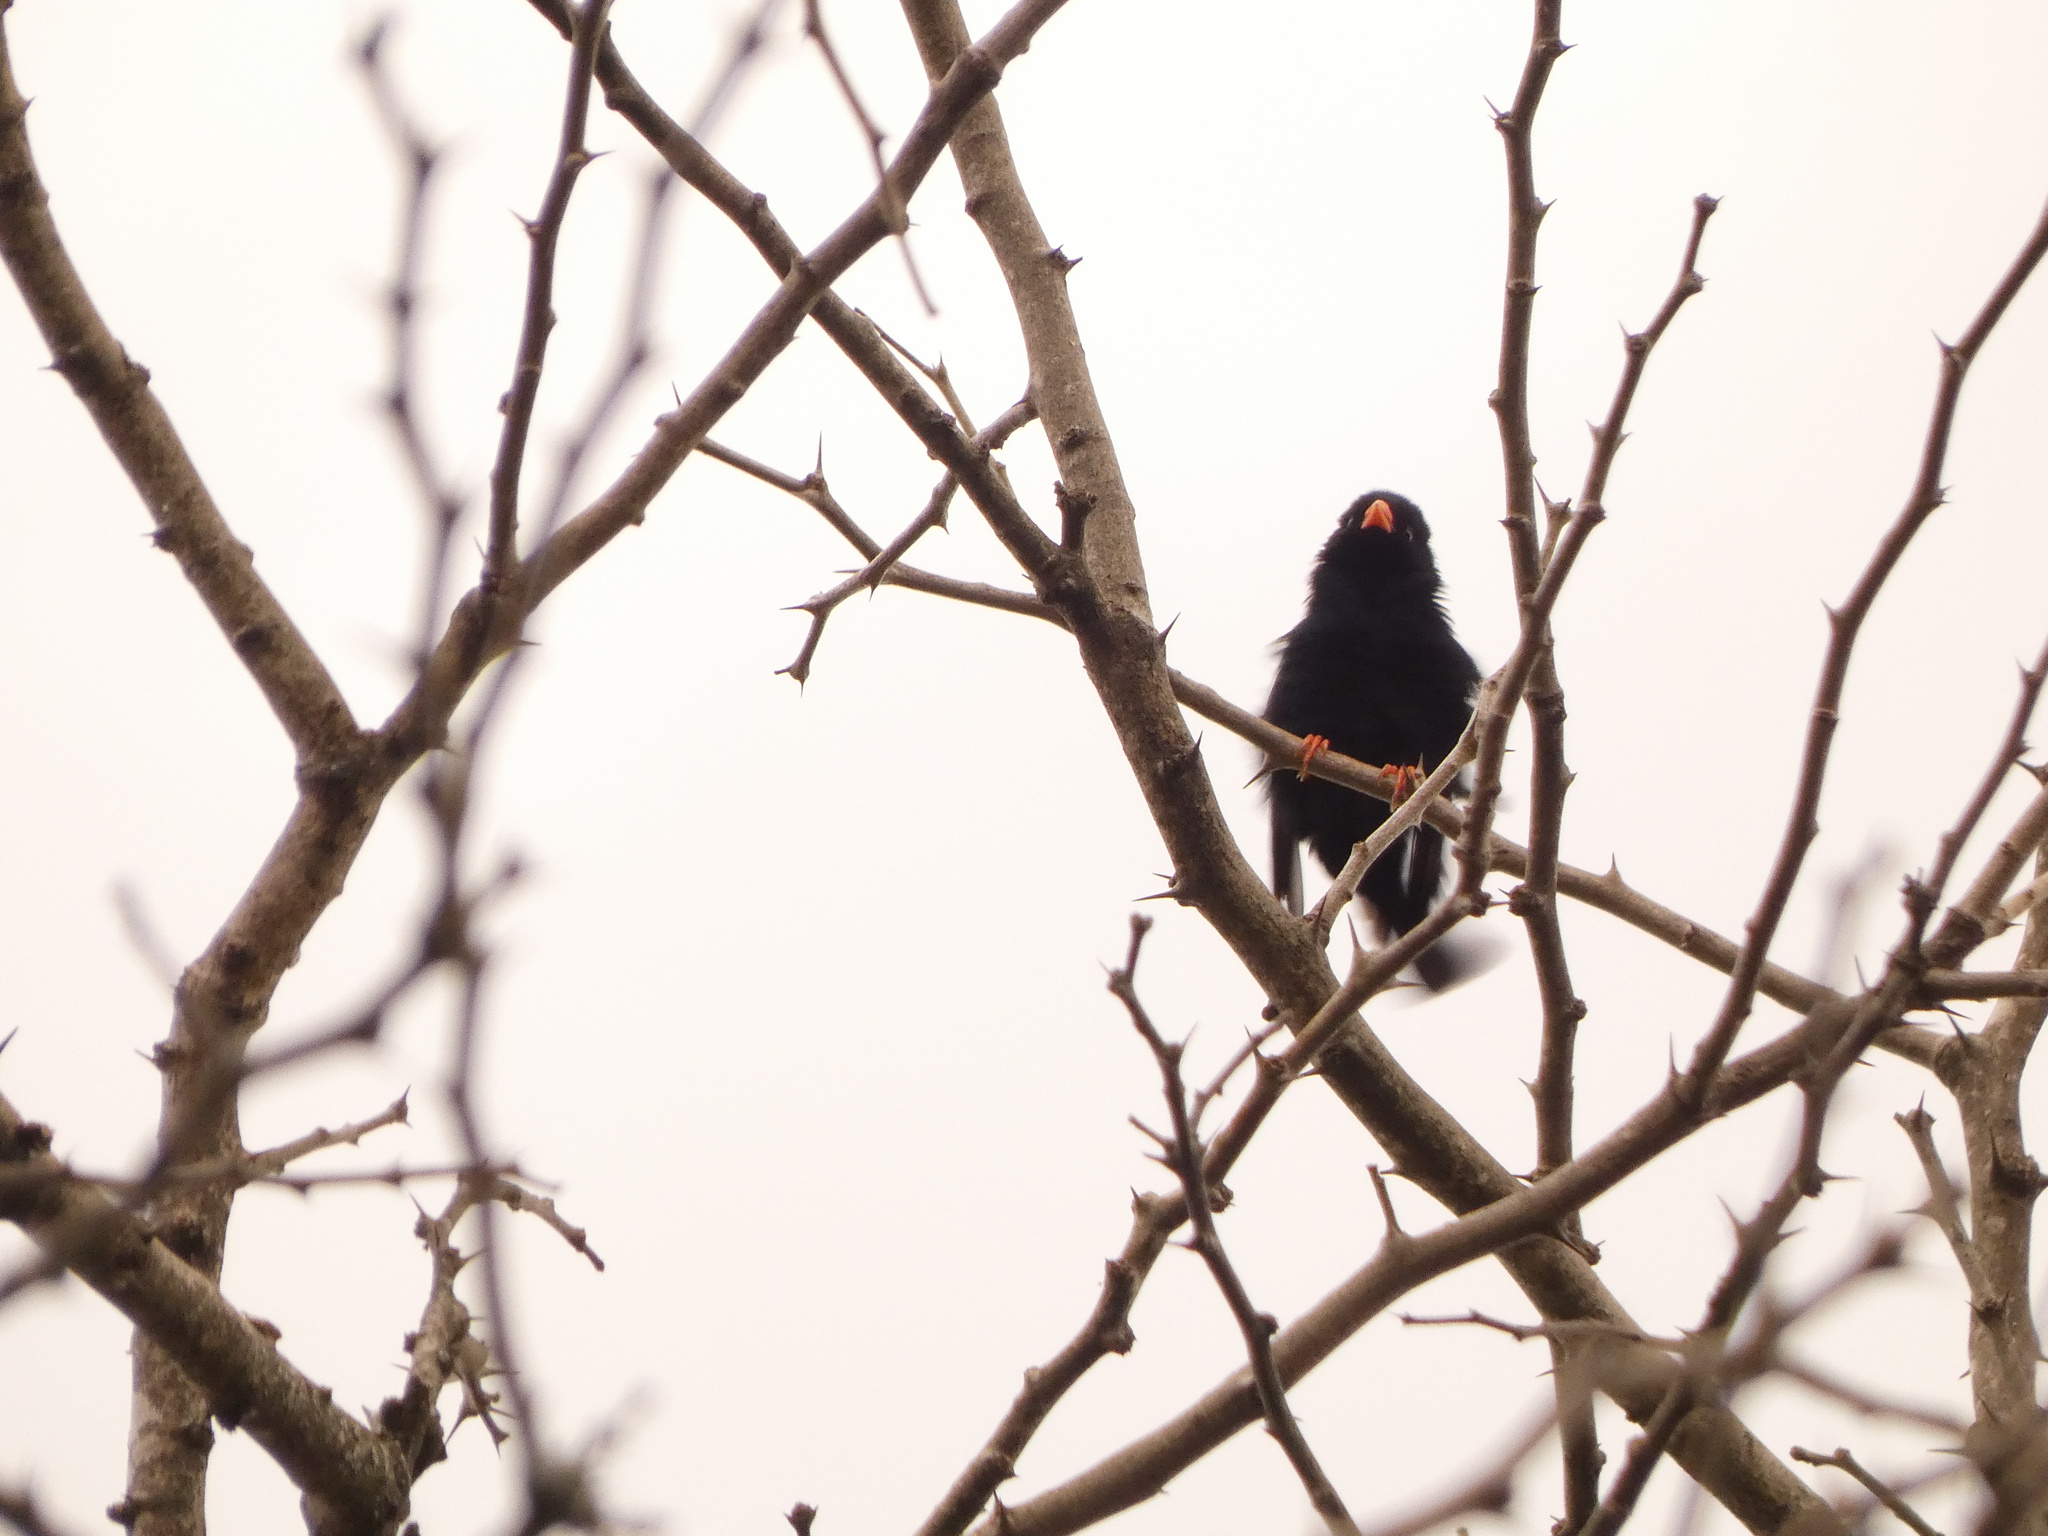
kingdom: Animalia
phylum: Chordata
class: Aves
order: Passeriformes
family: Viduidae
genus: Vidua
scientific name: Vidua chalybeata
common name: Village indigobird
